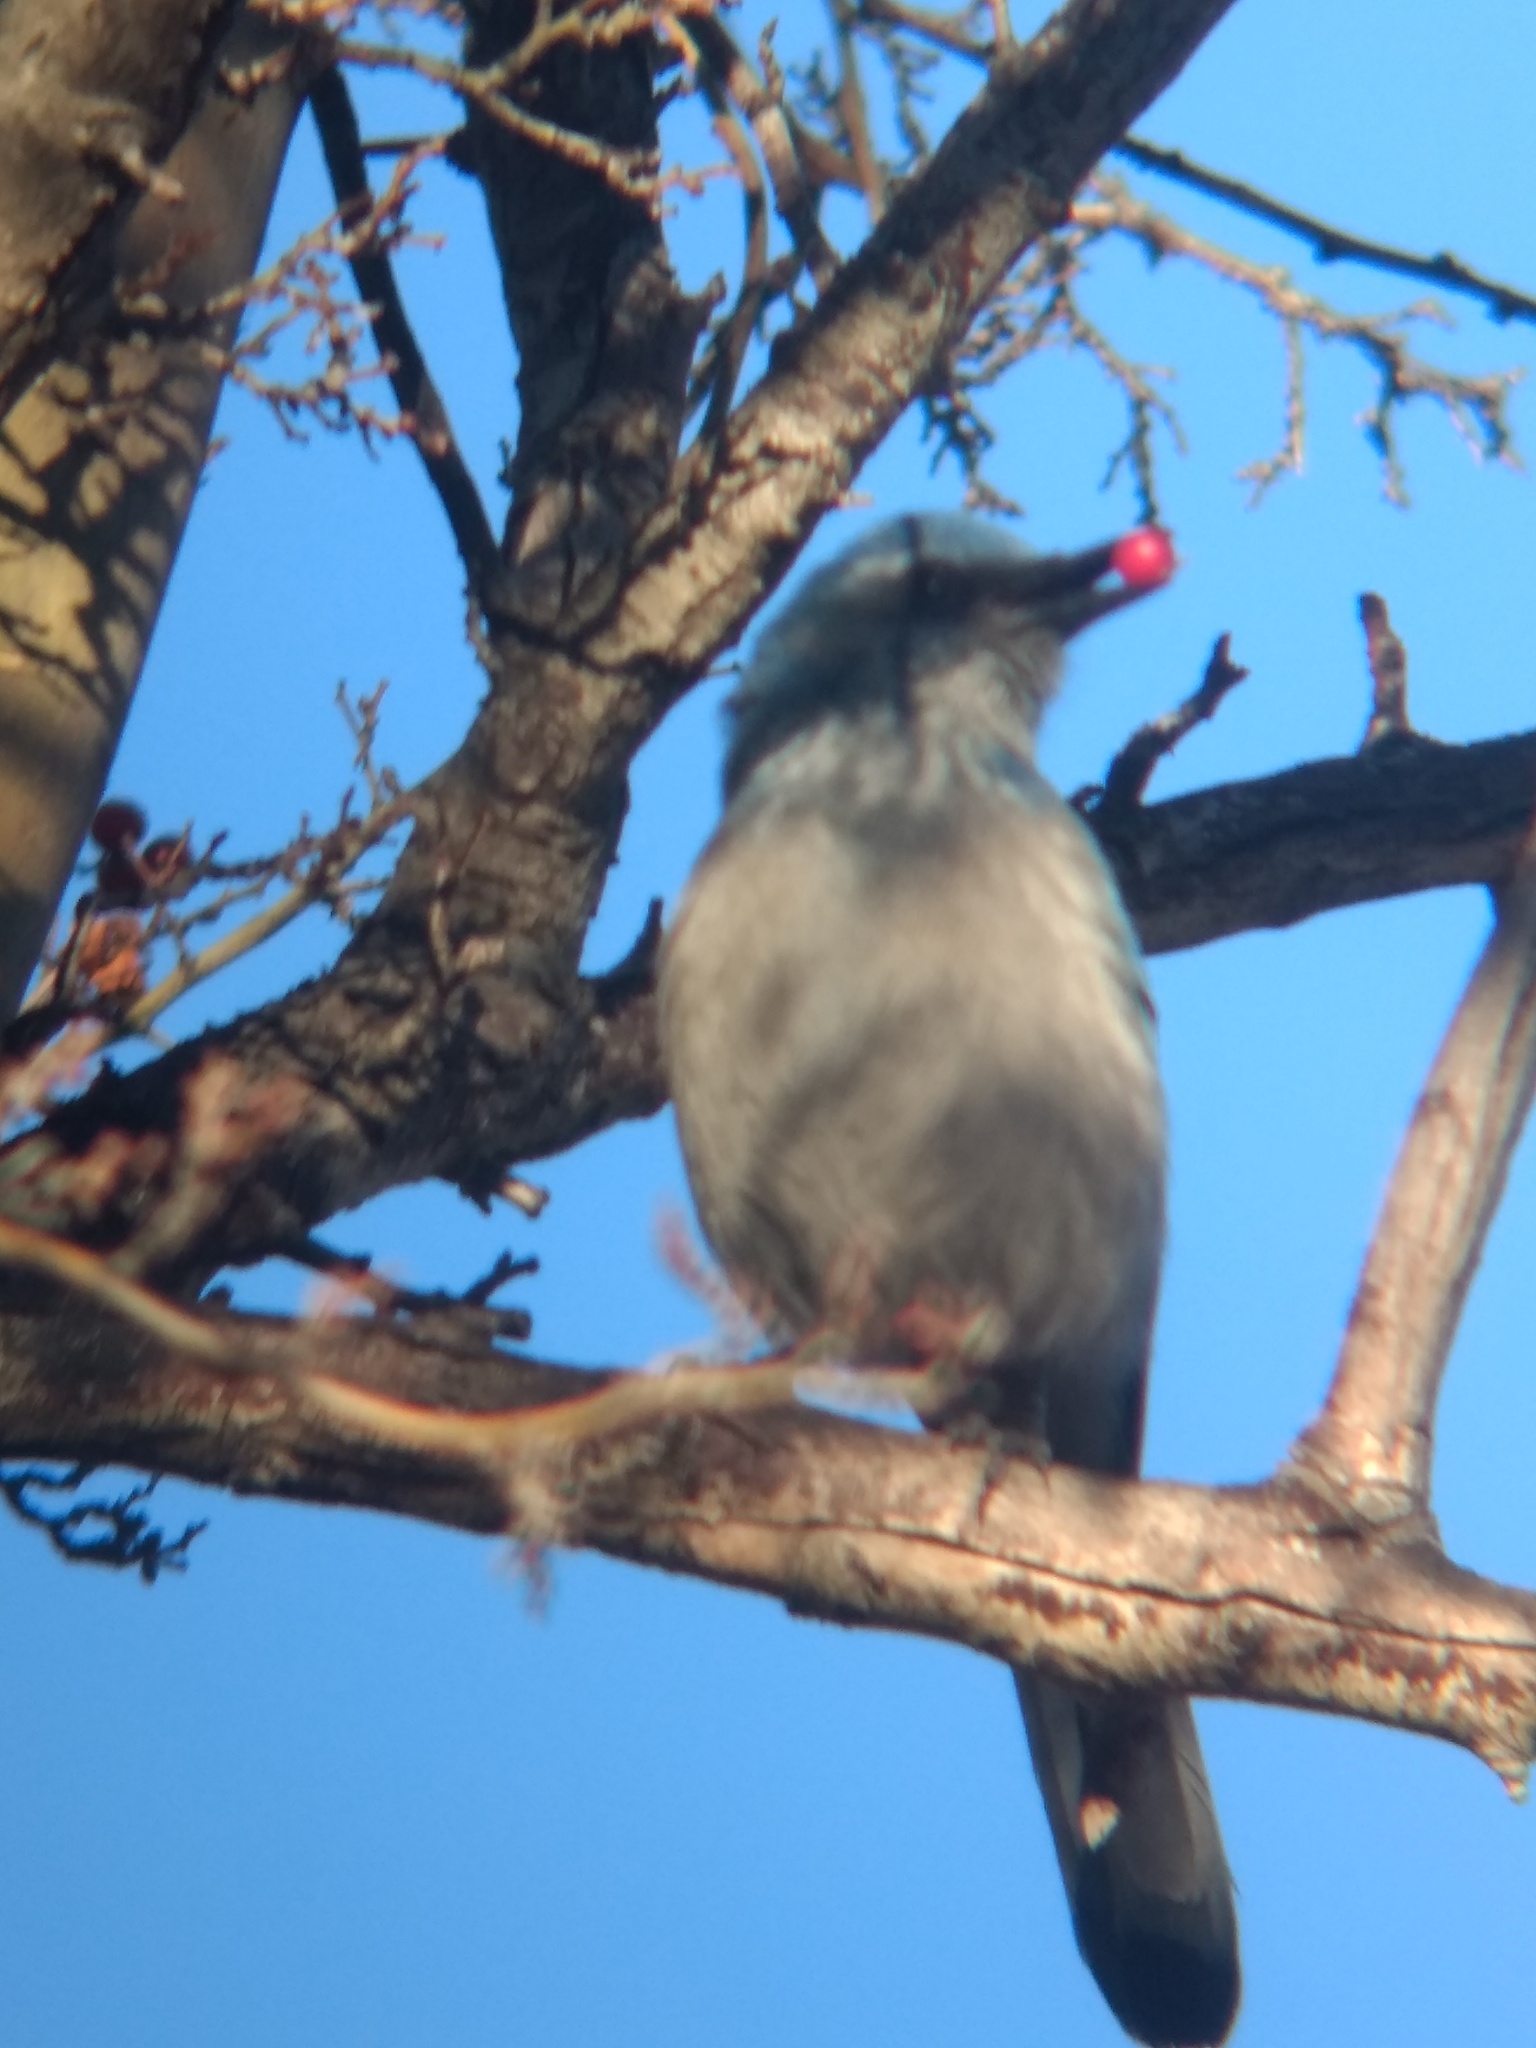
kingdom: Animalia
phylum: Chordata
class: Aves
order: Passeriformes
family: Corvidae
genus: Aphelocoma
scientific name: Aphelocoma woodhouseii
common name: Woodhouse's scrub-jay
